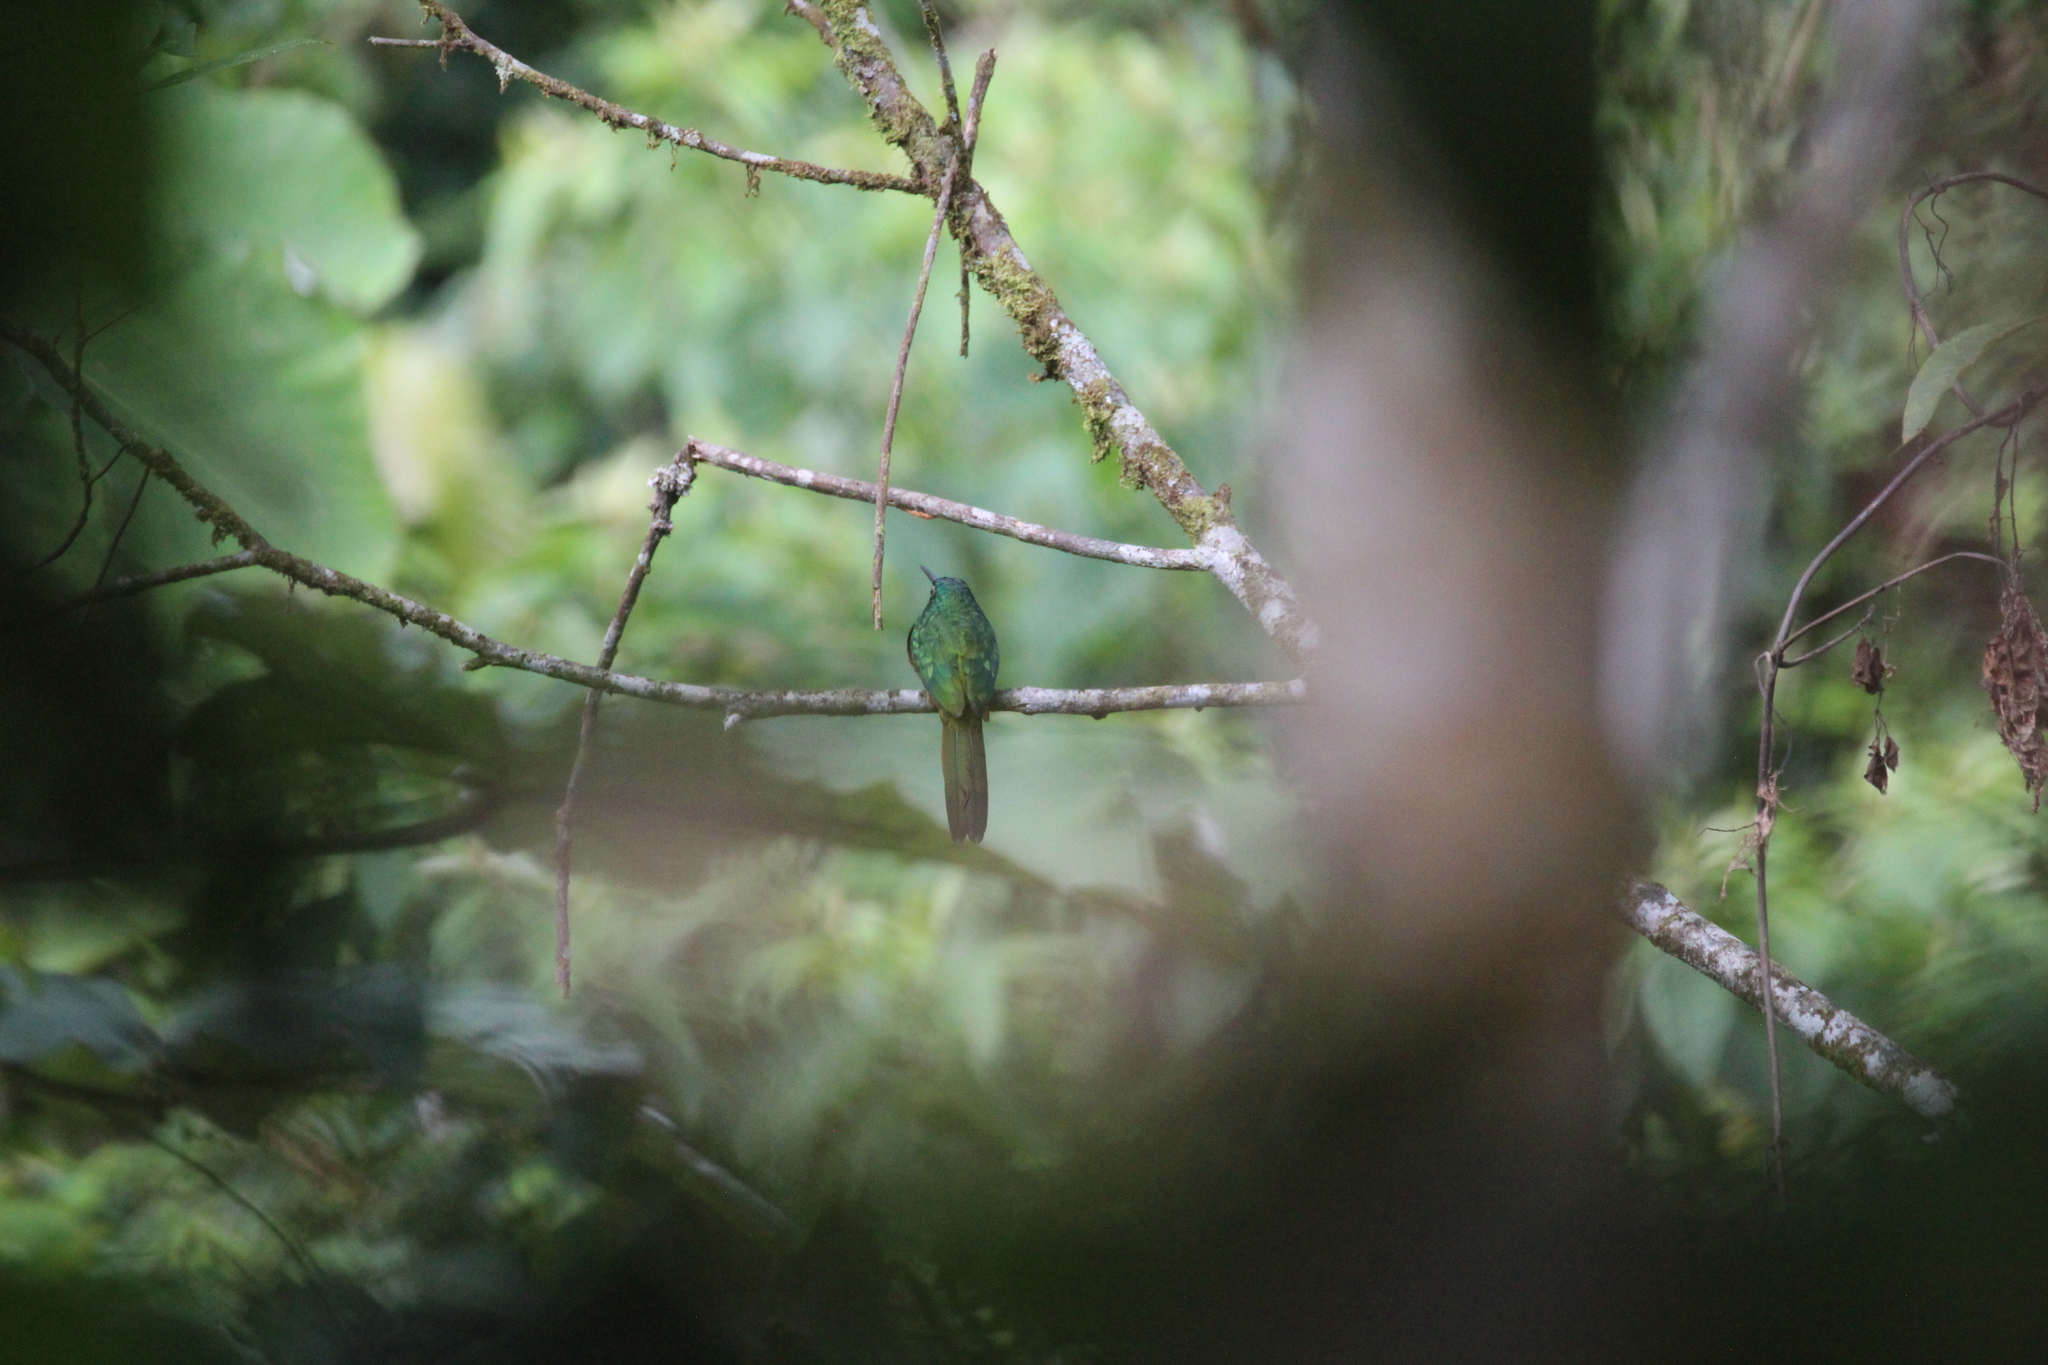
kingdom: Animalia
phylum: Chordata
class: Aves
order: Piciformes
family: Galbulidae
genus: Galbula
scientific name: Galbula pastazae
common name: Coppery-chested jacamar
